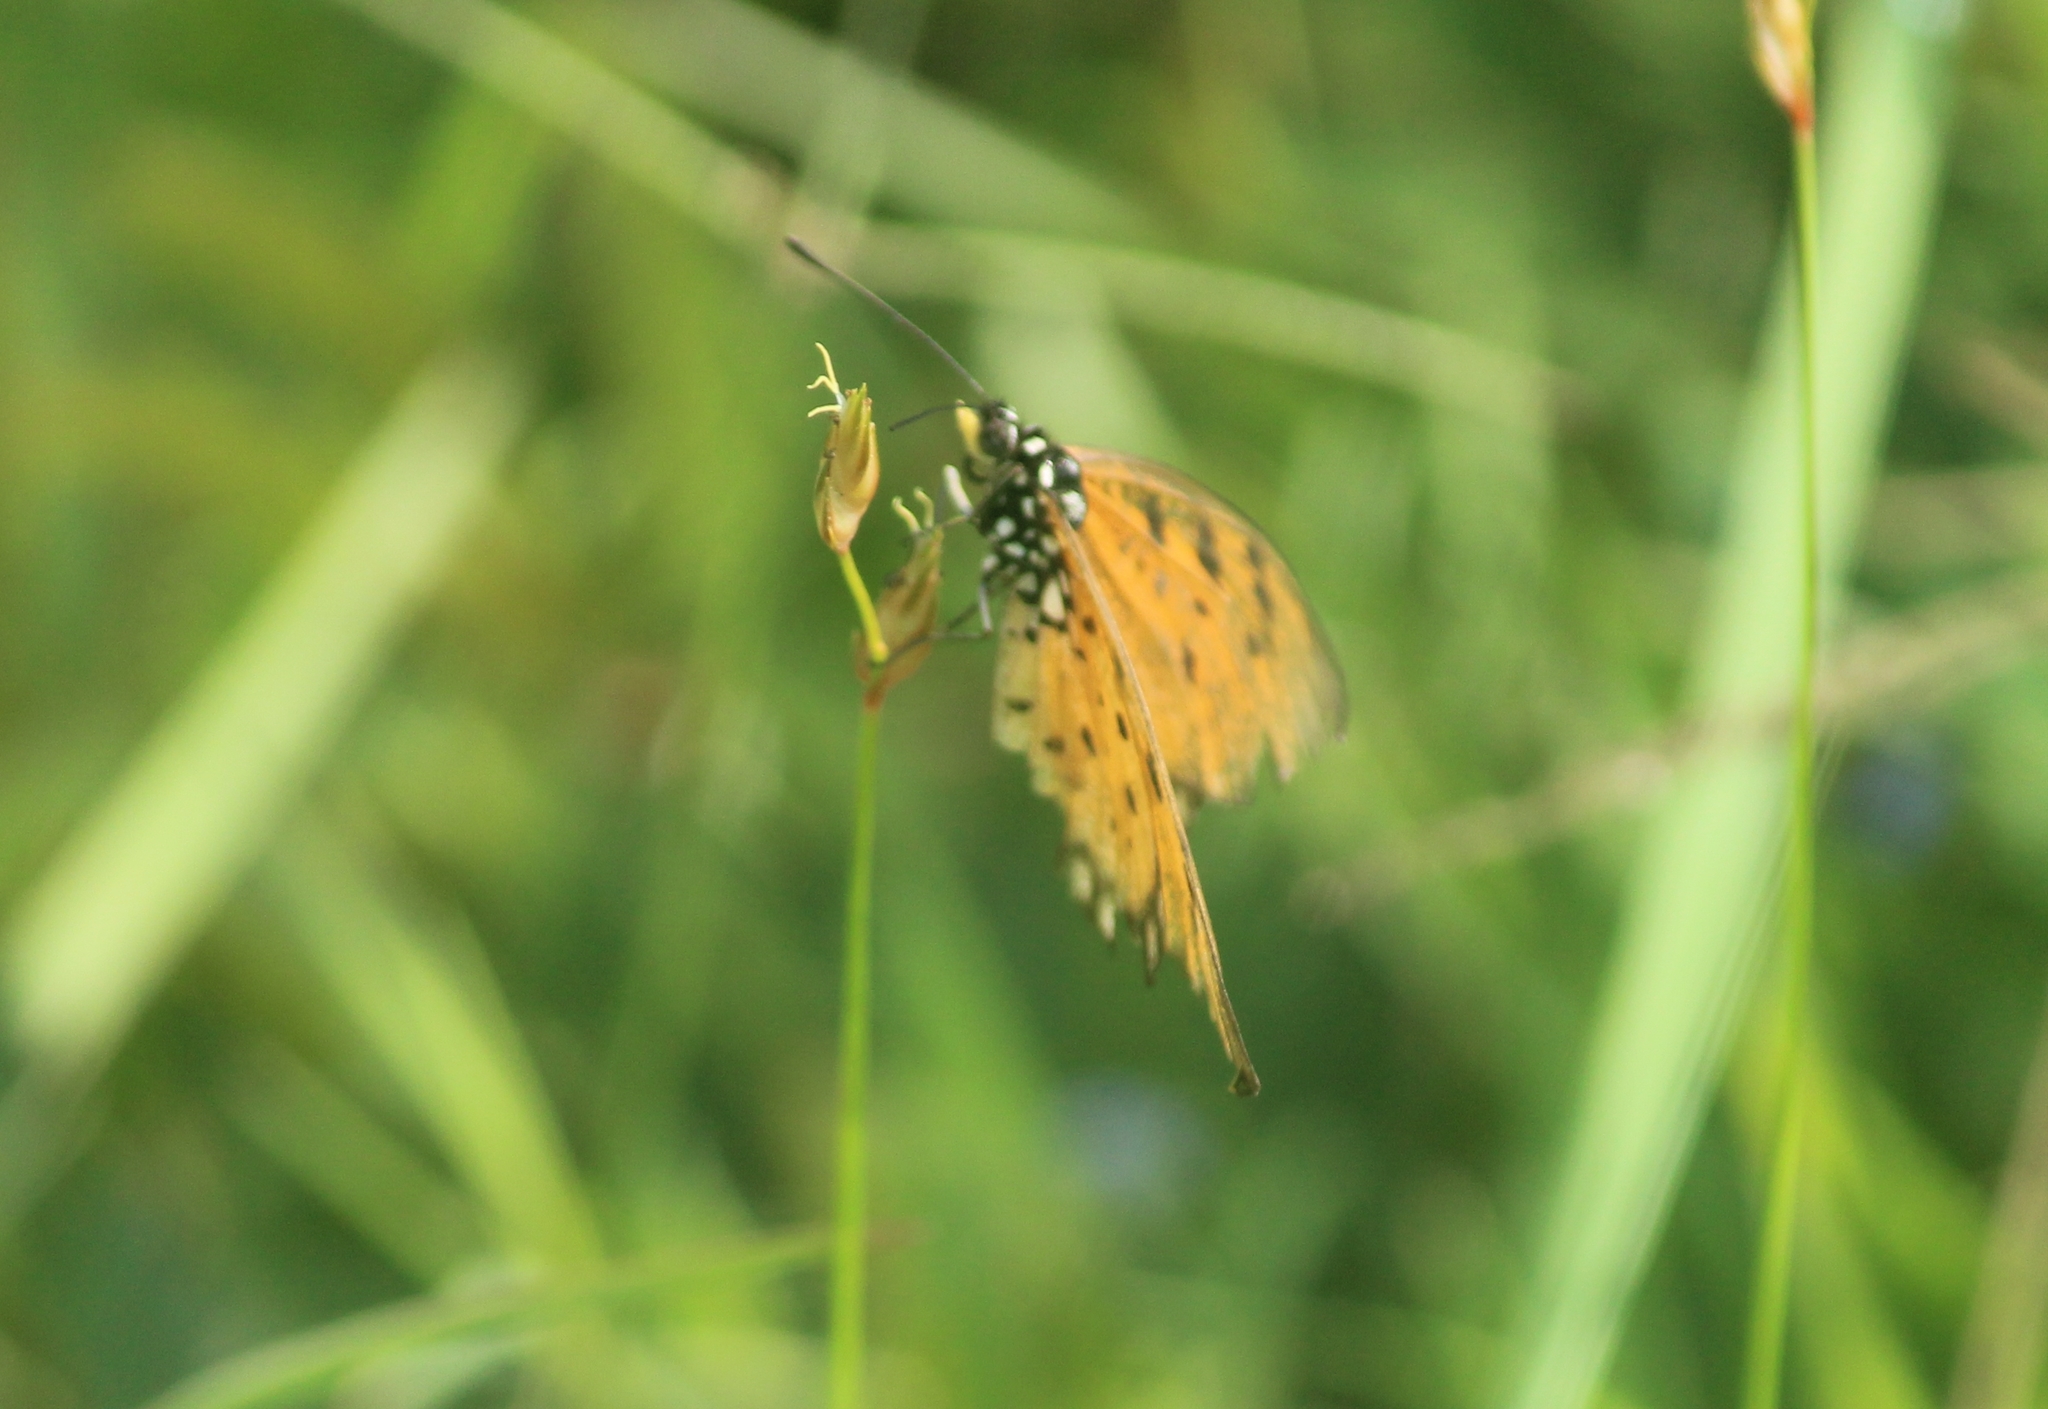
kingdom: Animalia
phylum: Arthropoda
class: Insecta
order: Lepidoptera
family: Nymphalidae
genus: Acraea
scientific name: Acraea terpsicore
